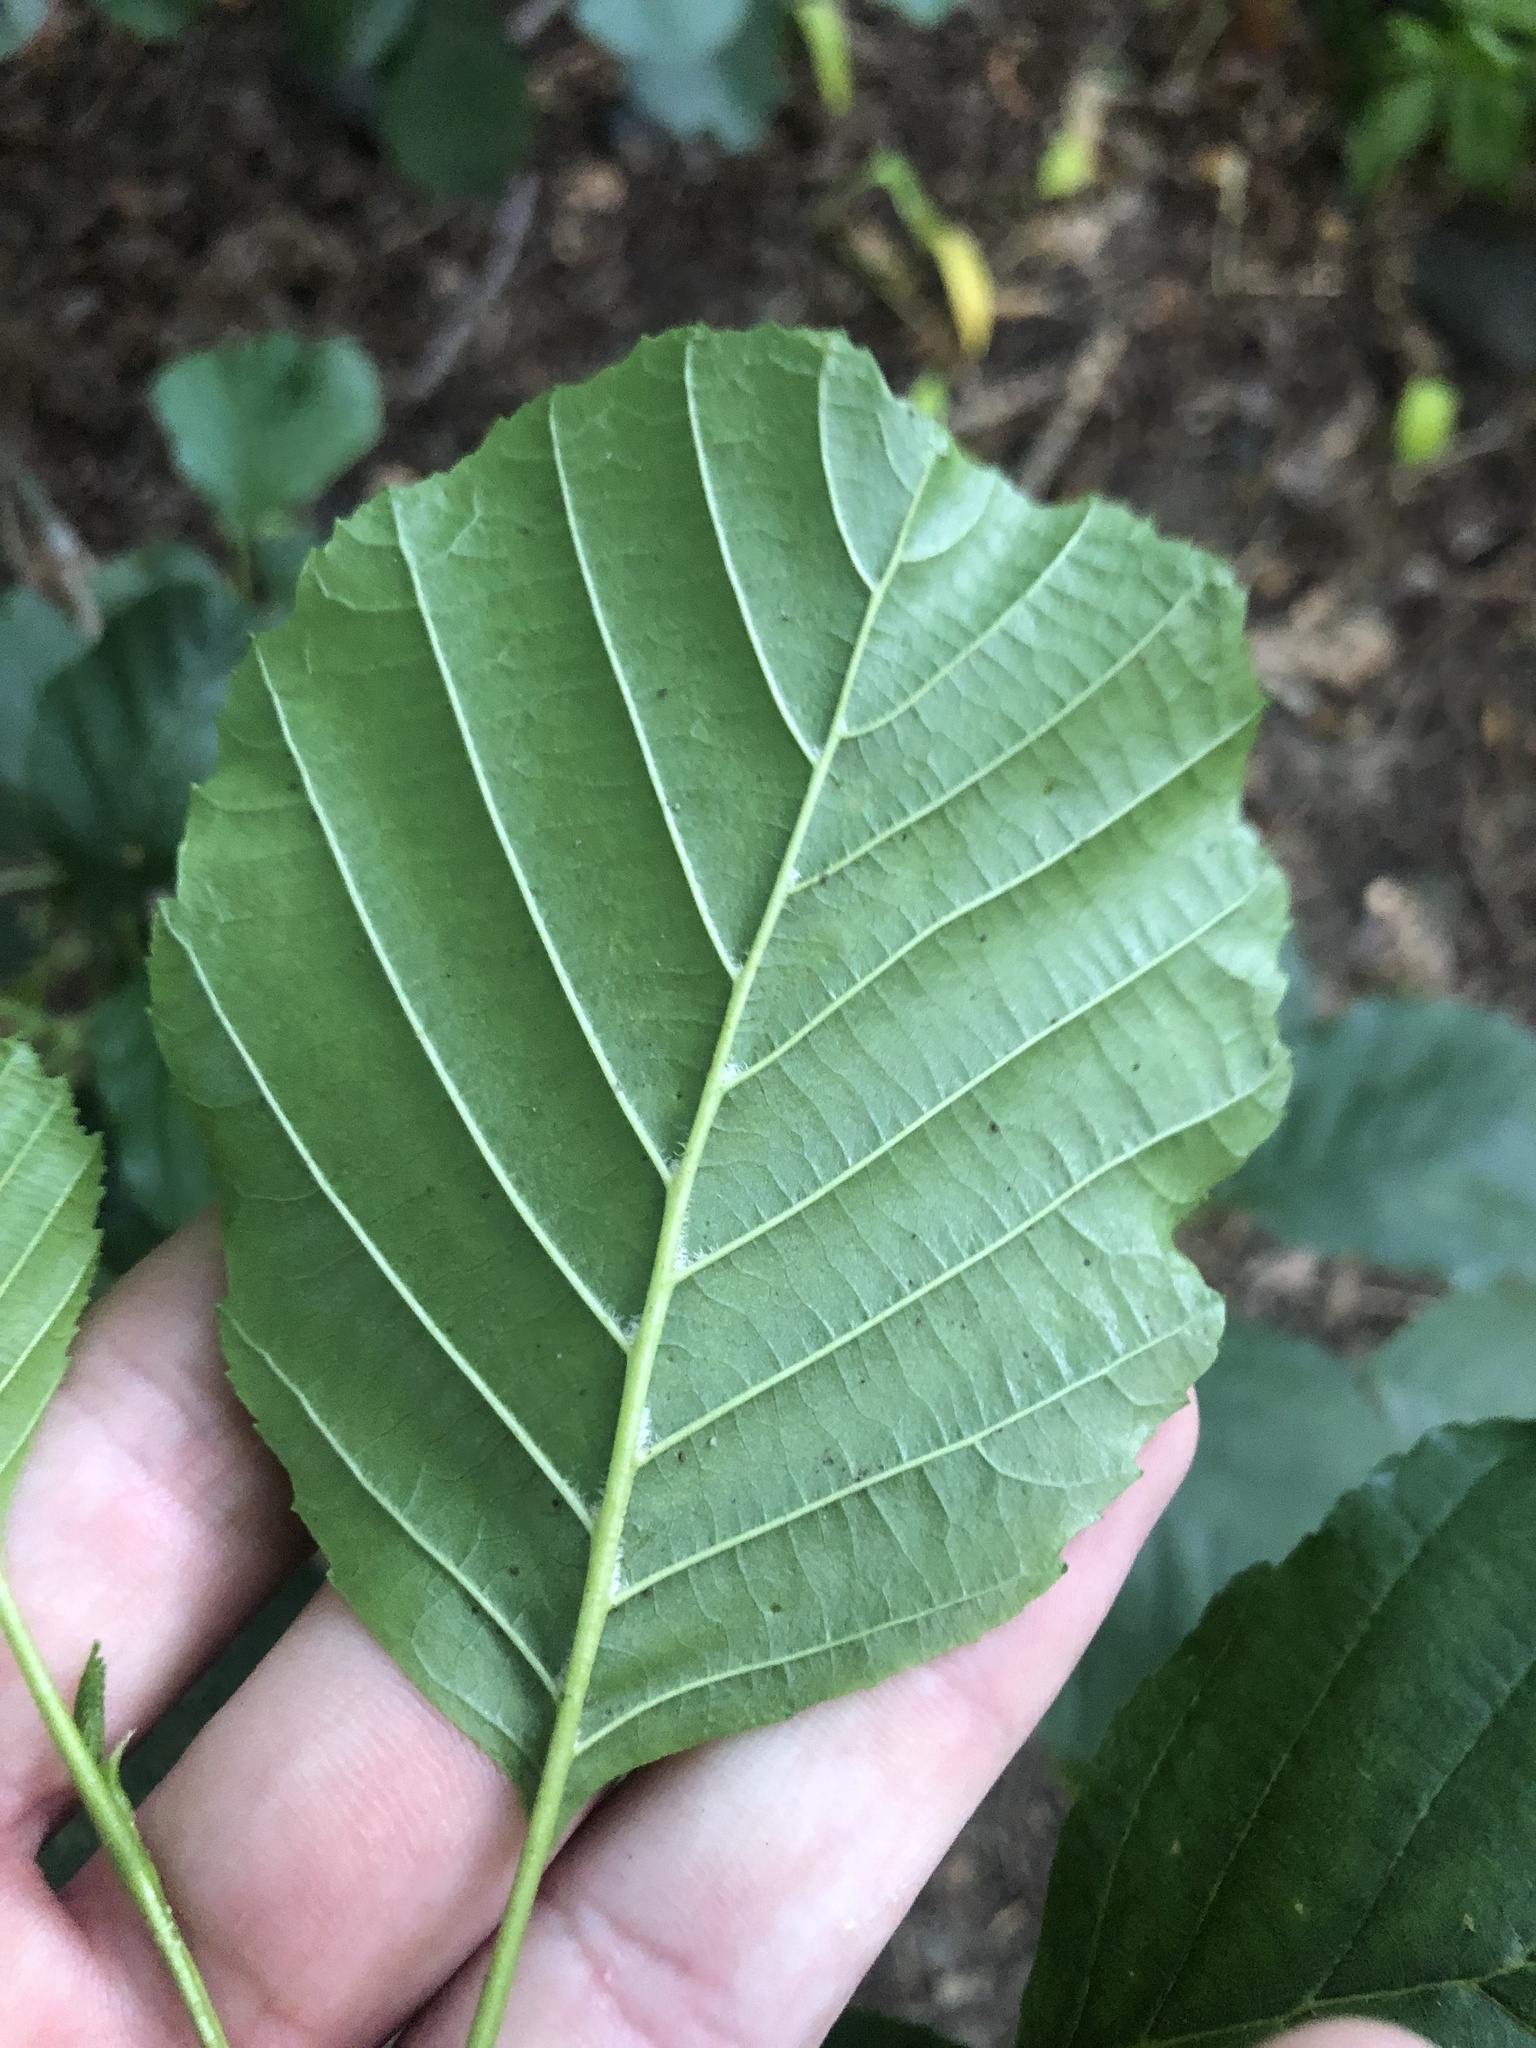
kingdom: Plantae
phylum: Tracheophyta
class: Magnoliopsida
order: Fagales
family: Betulaceae
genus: Alnus
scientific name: Alnus glutinosa
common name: Black alder
